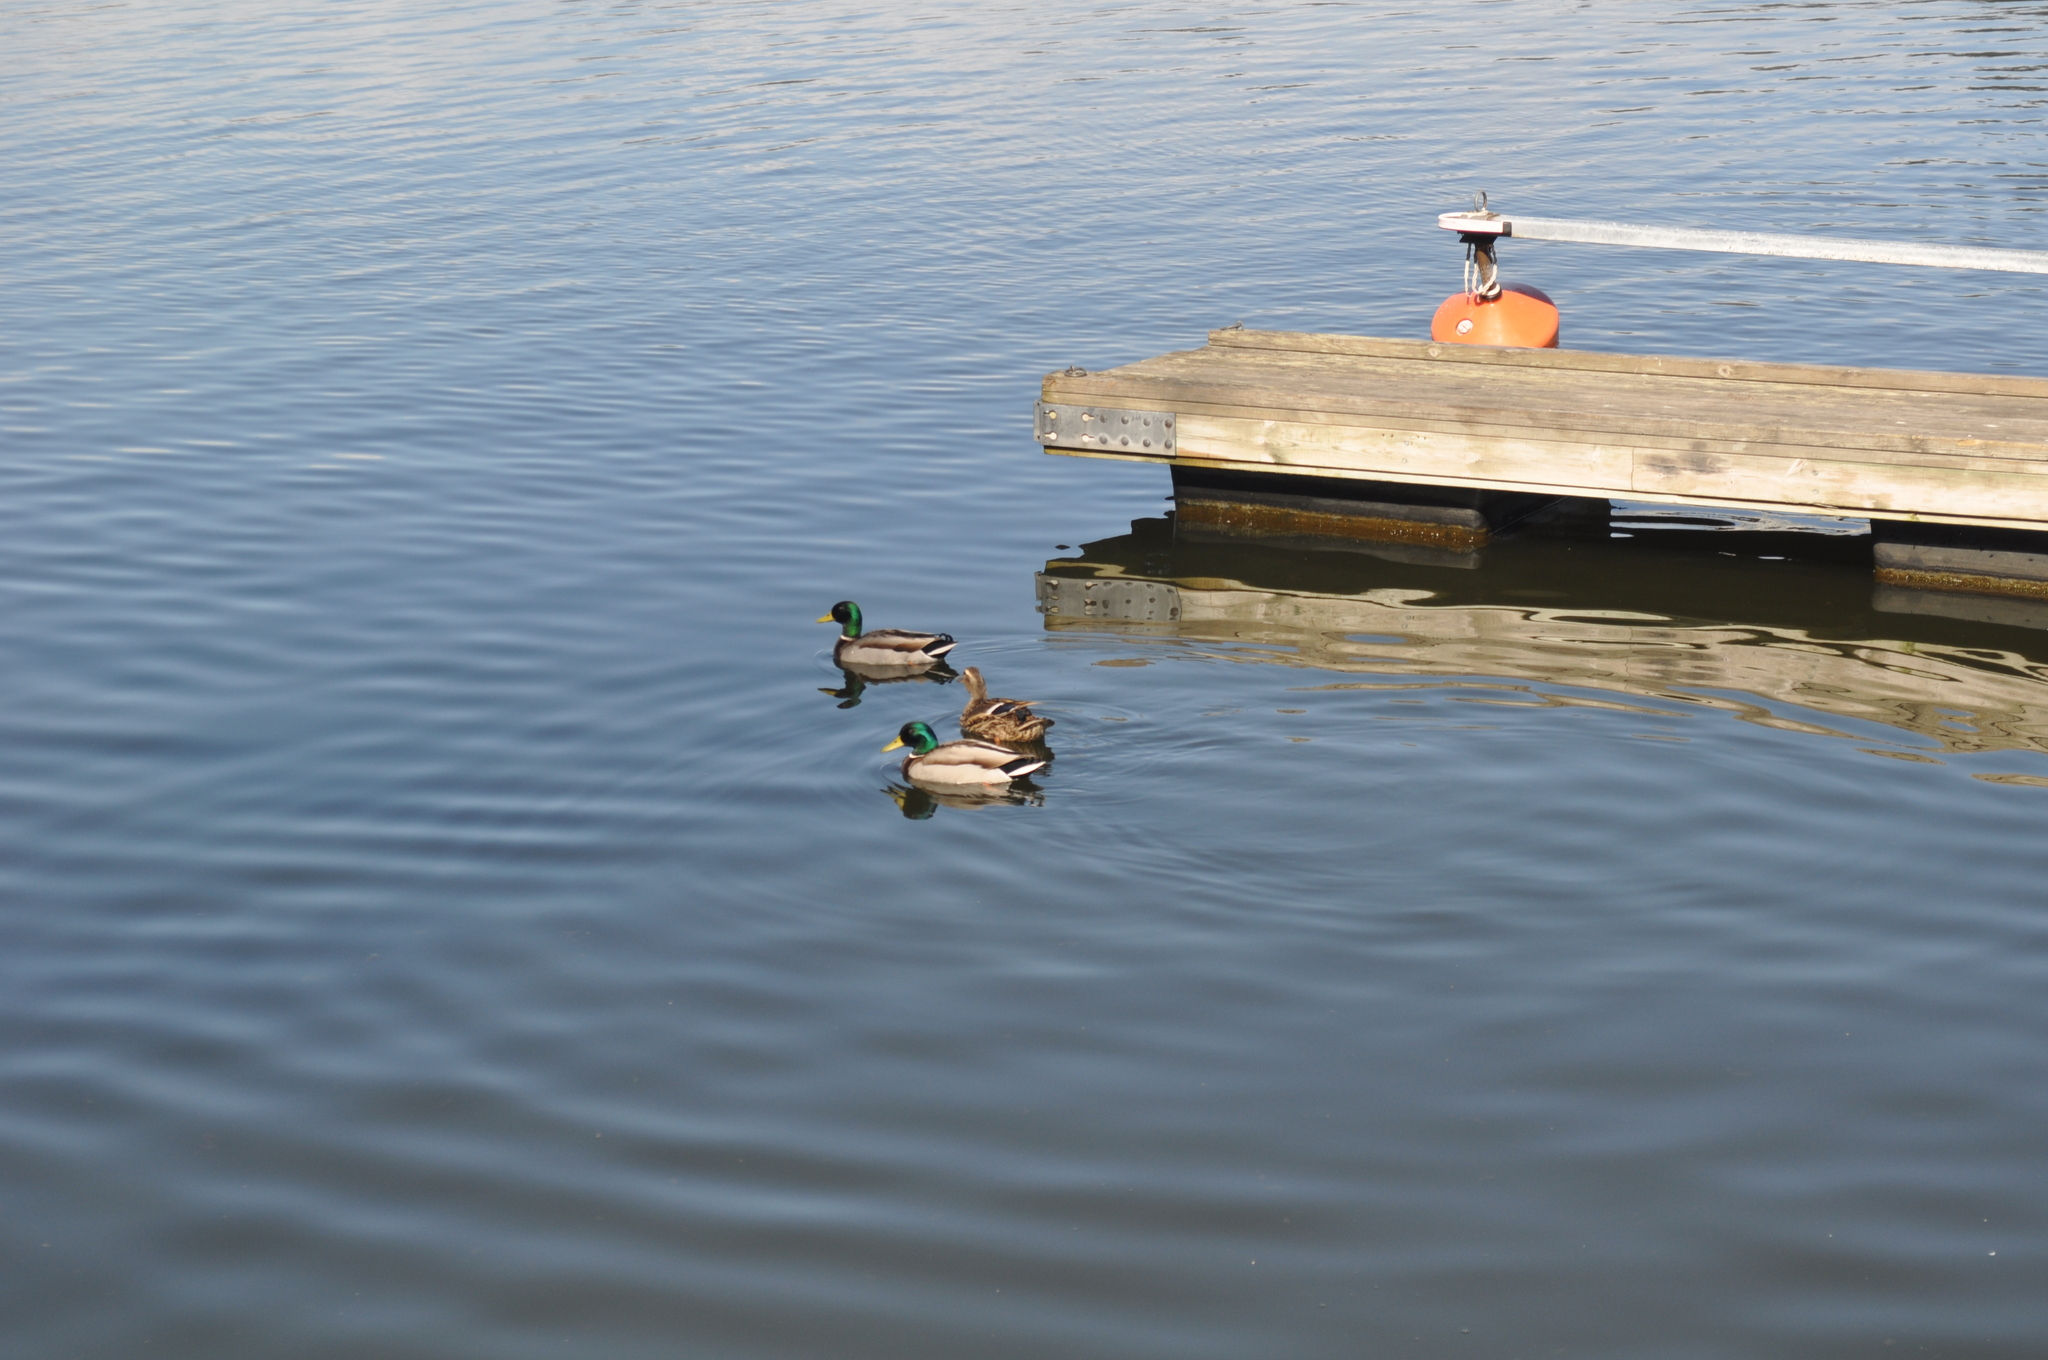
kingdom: Animalia
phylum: Chordata
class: Aves
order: Anseriformes
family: Anatidae
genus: Anas
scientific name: Anas platyrhynchos
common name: Mallard
